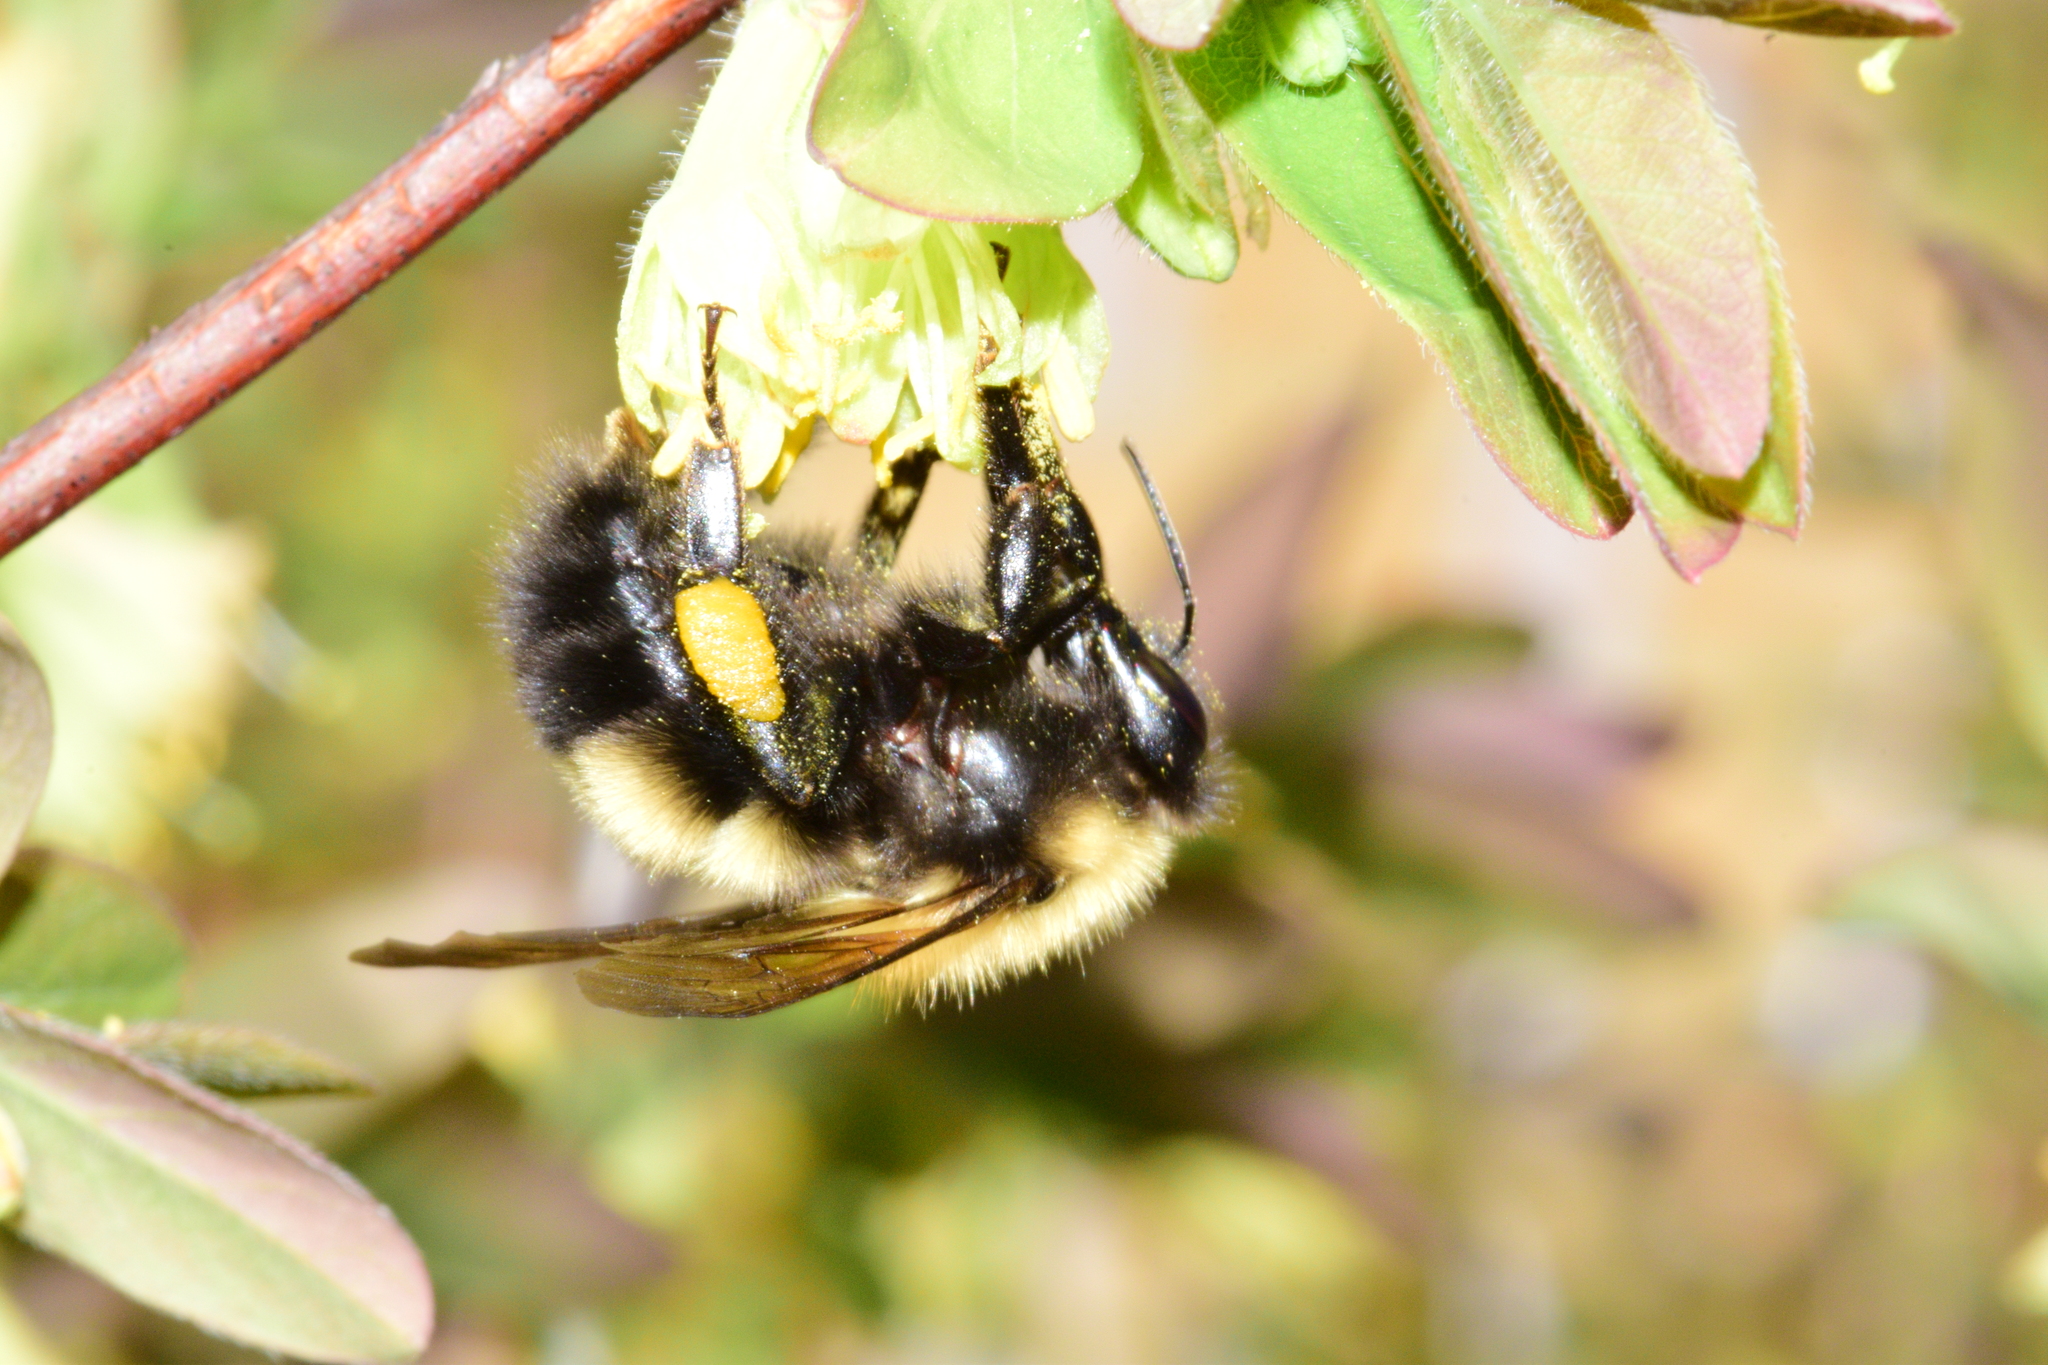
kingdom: Animalia
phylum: Arthropoda
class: Insecta
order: Hymenoptera
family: Apidae
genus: Bombus
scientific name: Bombus perplexus
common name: Confusing bumble bee
